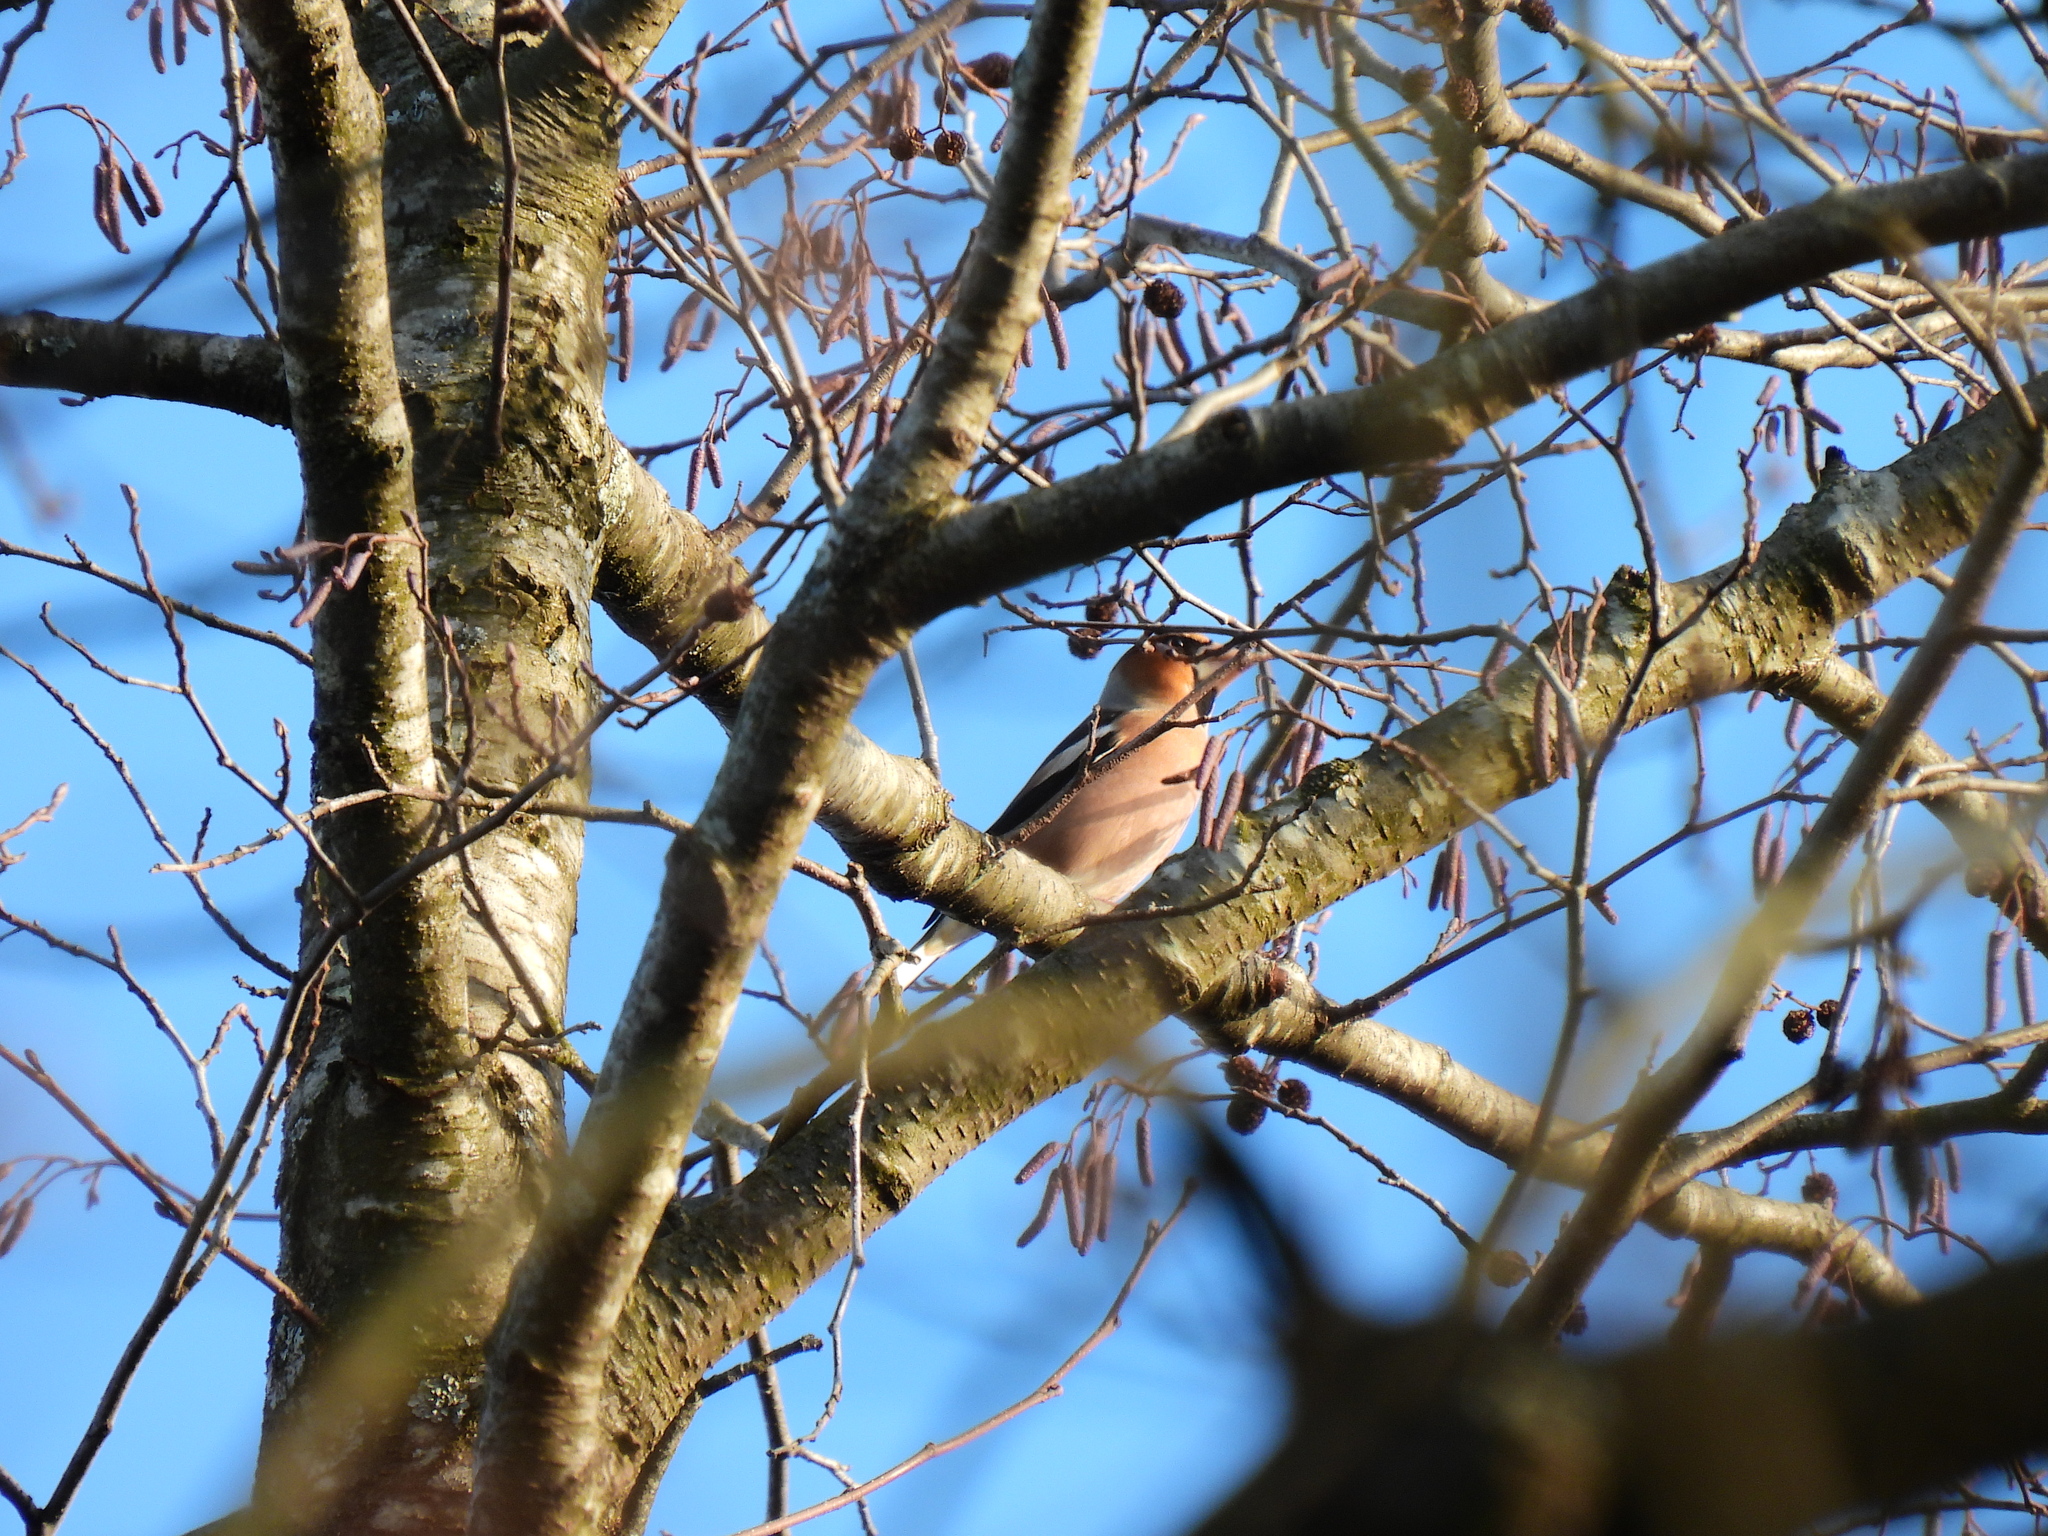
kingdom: Animalia
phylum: Chordata
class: Aves
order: Passeriformes
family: Fringillidae
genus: Coccothraustes
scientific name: Coccothraustes coccothraustes
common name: Hawfinch
